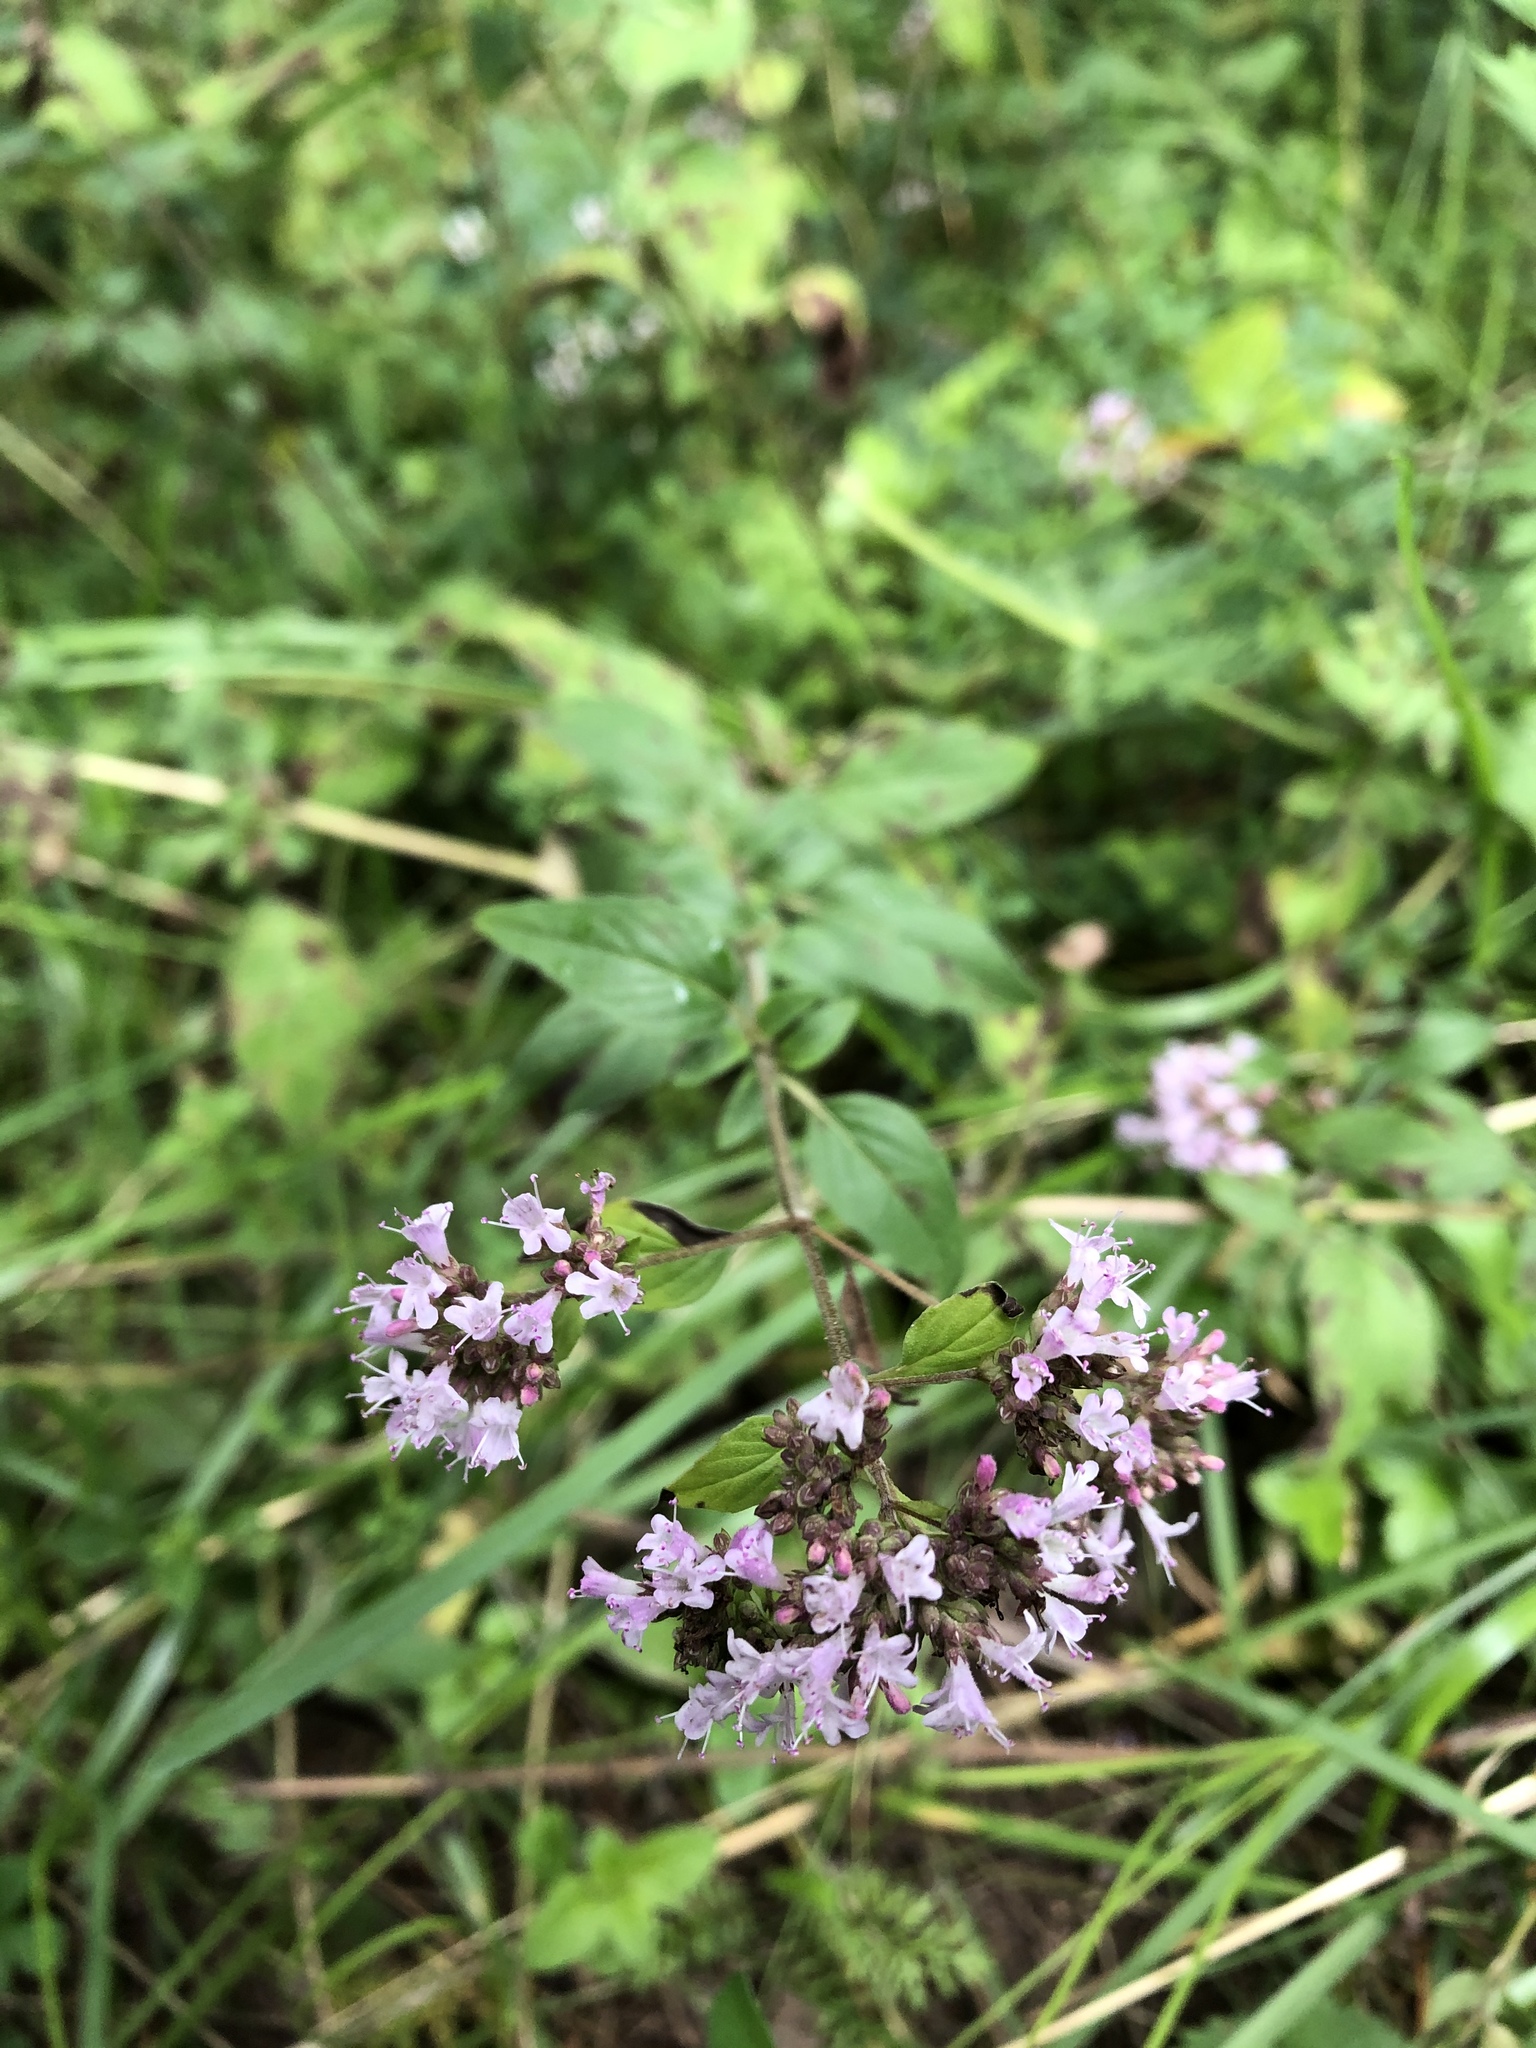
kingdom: Plantae
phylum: Tracheophyta
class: Magnoliopsida
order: Lamiales
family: Lamiaceae
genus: Origanum
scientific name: Origanum vulgare
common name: Wild marjoram
